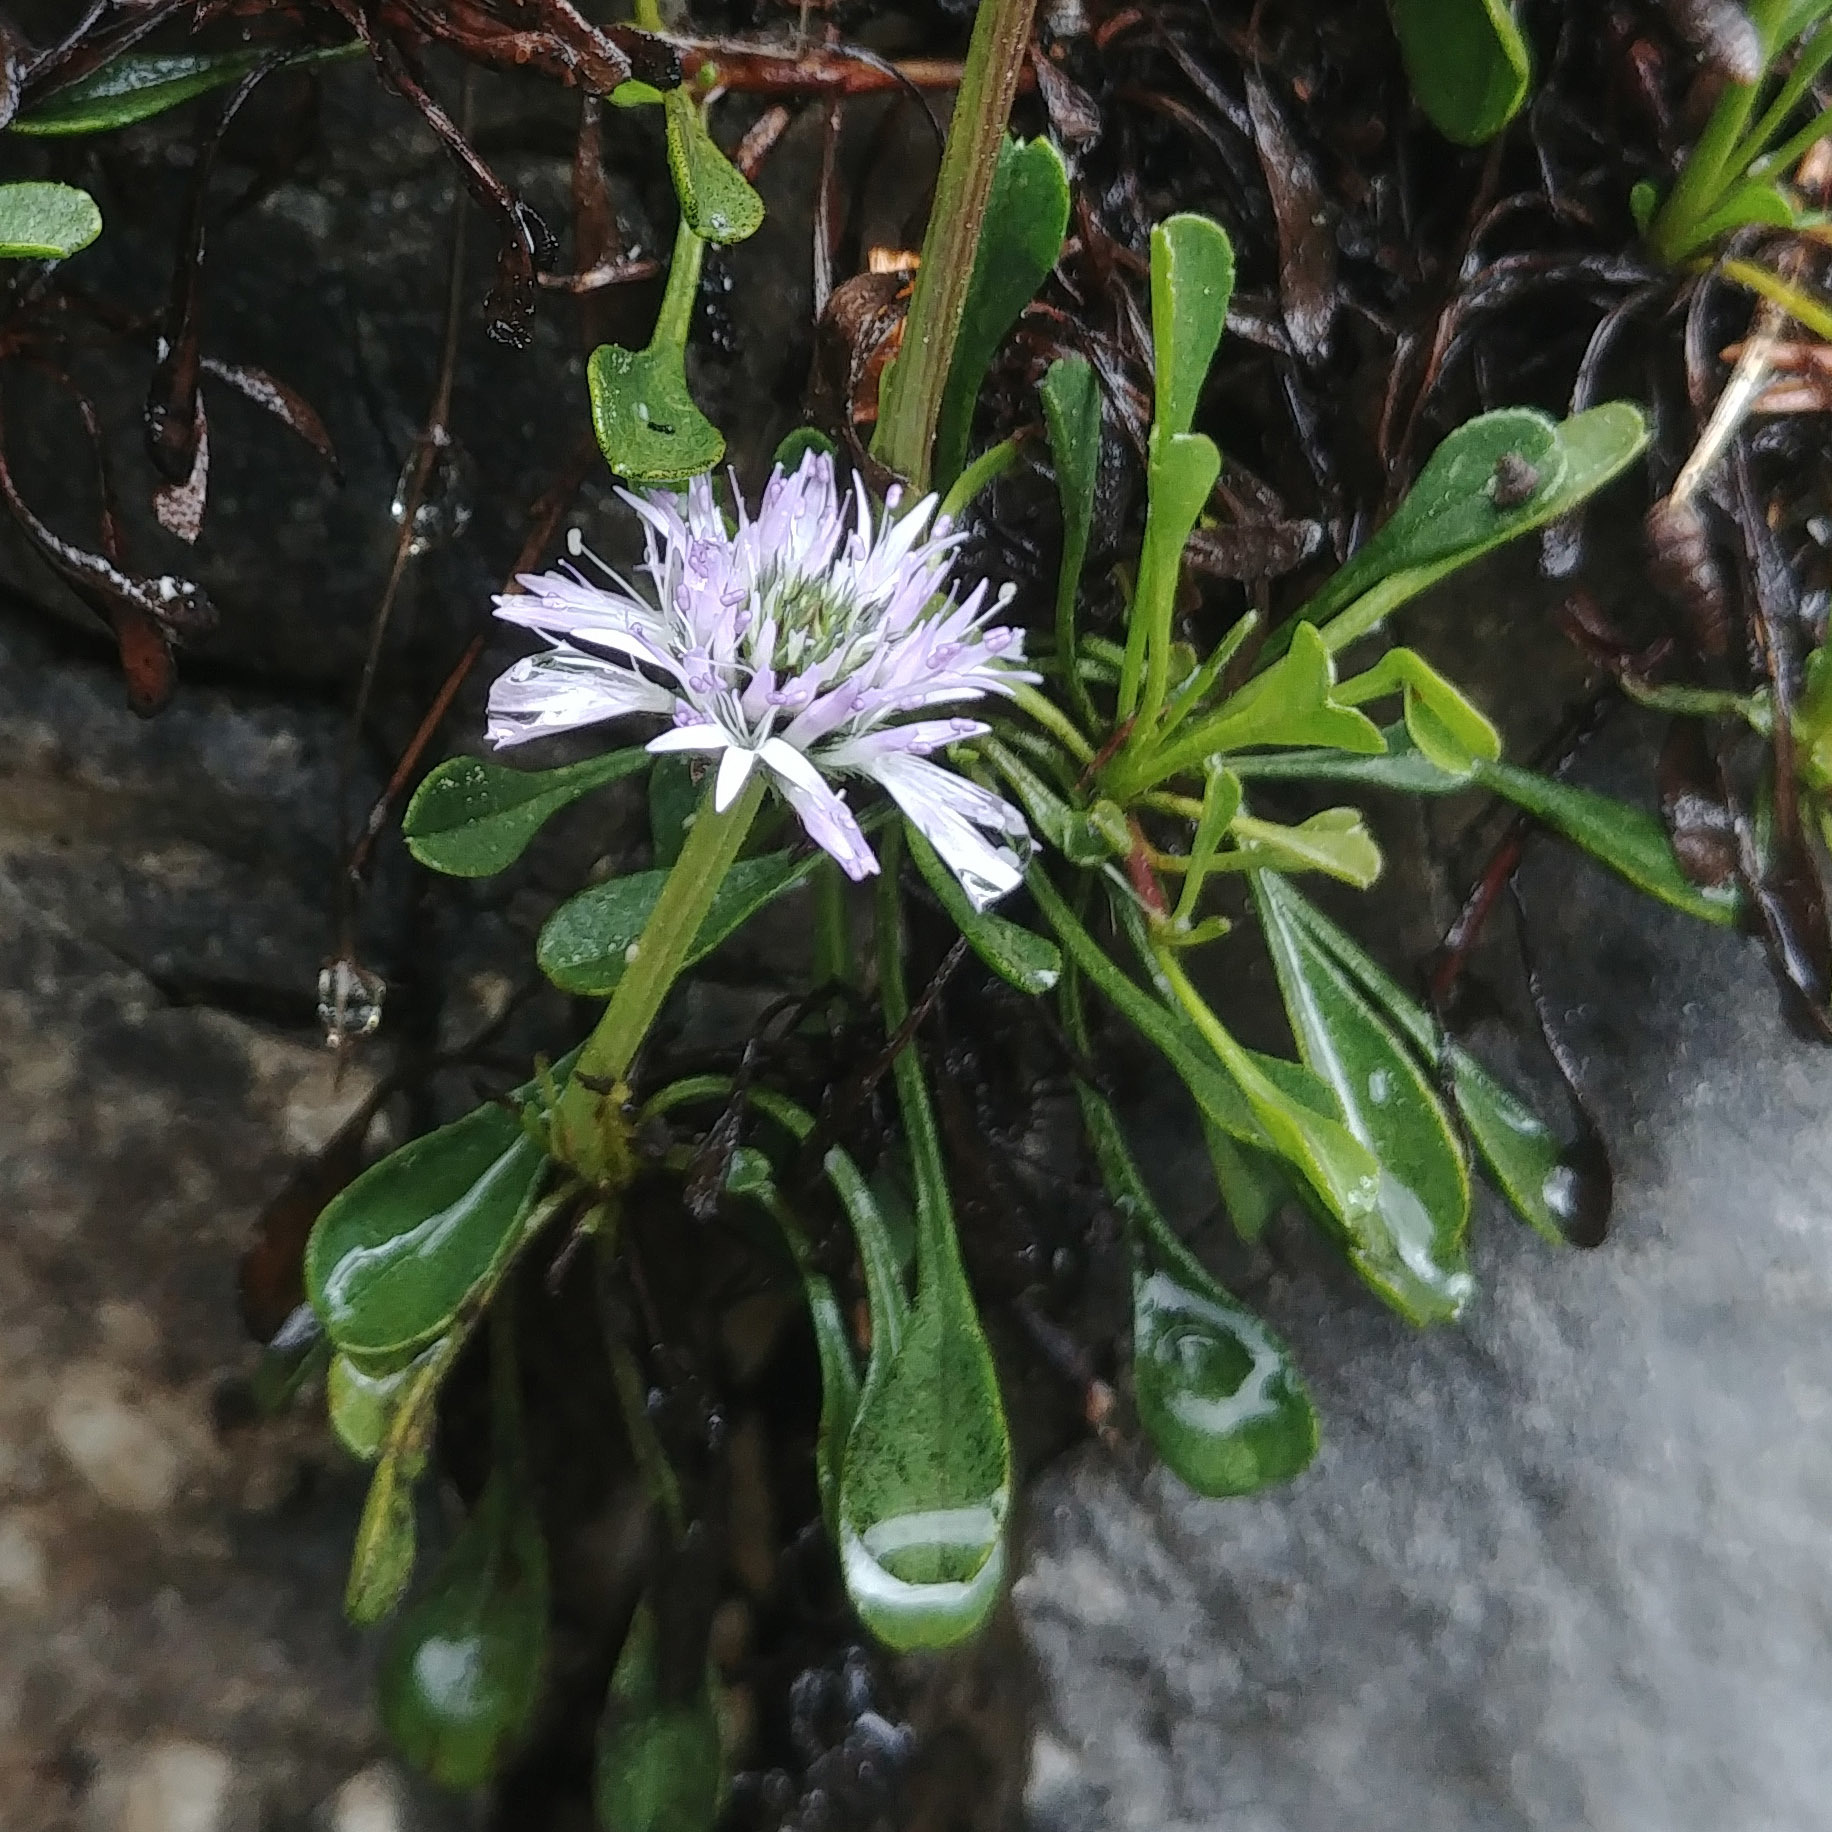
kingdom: Plantae
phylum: Tracheophyta
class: Magnoliopsida
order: Lamiales
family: Plantaginaceae
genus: Globularia
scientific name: Globularia cordifolia
